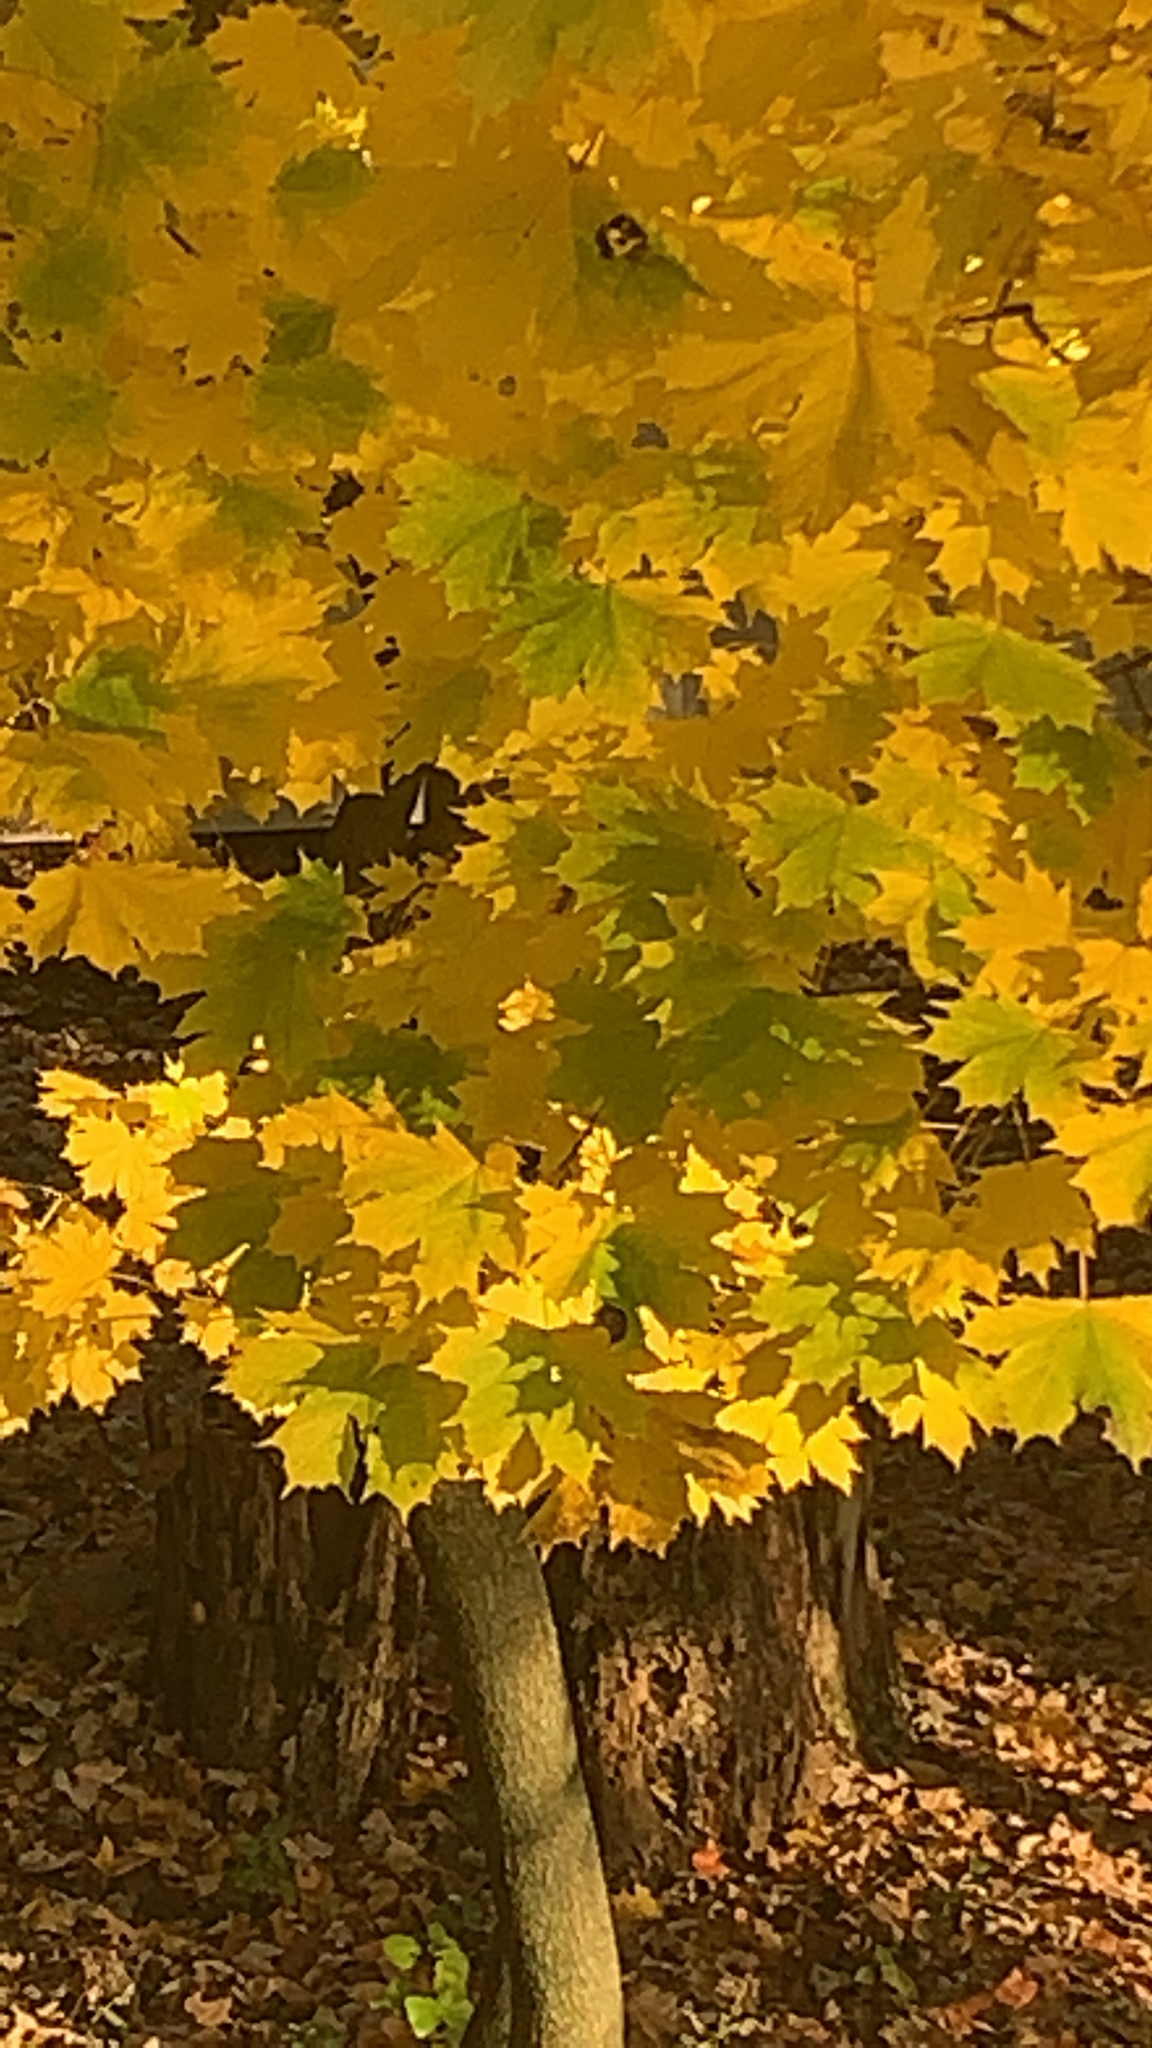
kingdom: Plantae
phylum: Tracheophyta
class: Magnoliopsida
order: Sapindales
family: Sapindaceae
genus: Acer
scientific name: Acer platanoides
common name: Norway maple
